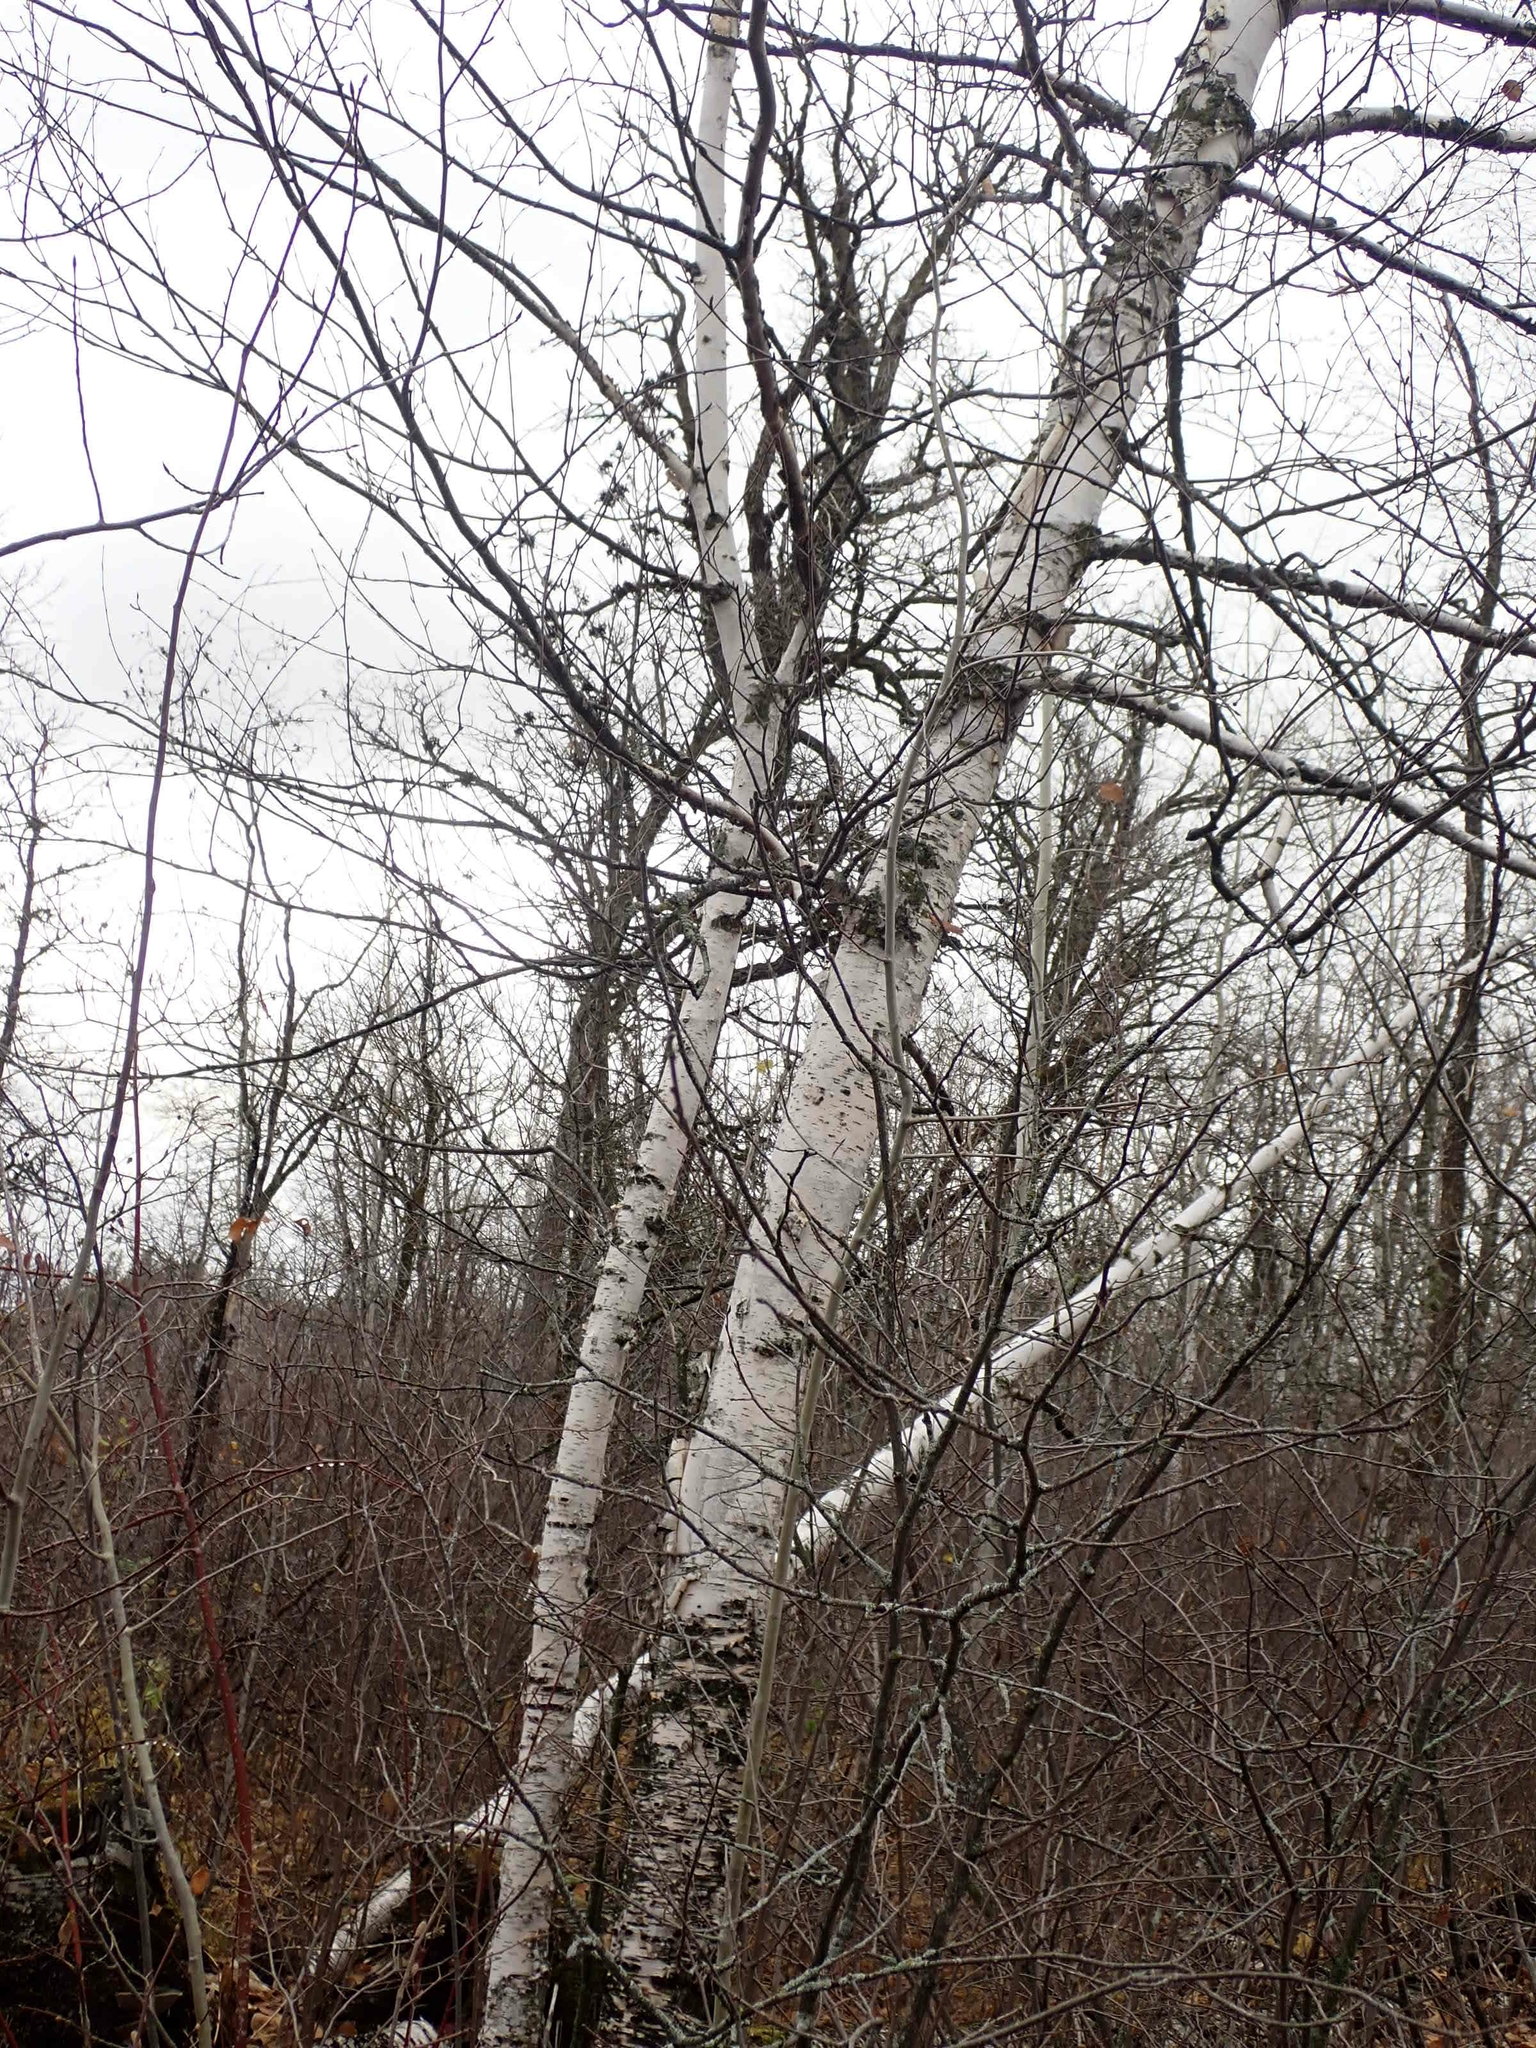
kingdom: Plantae
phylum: Tracheophyta
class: Magnoliopsida
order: Fagales
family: Betulaceae
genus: Betula
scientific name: Betula papyrifera
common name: Paper birch
